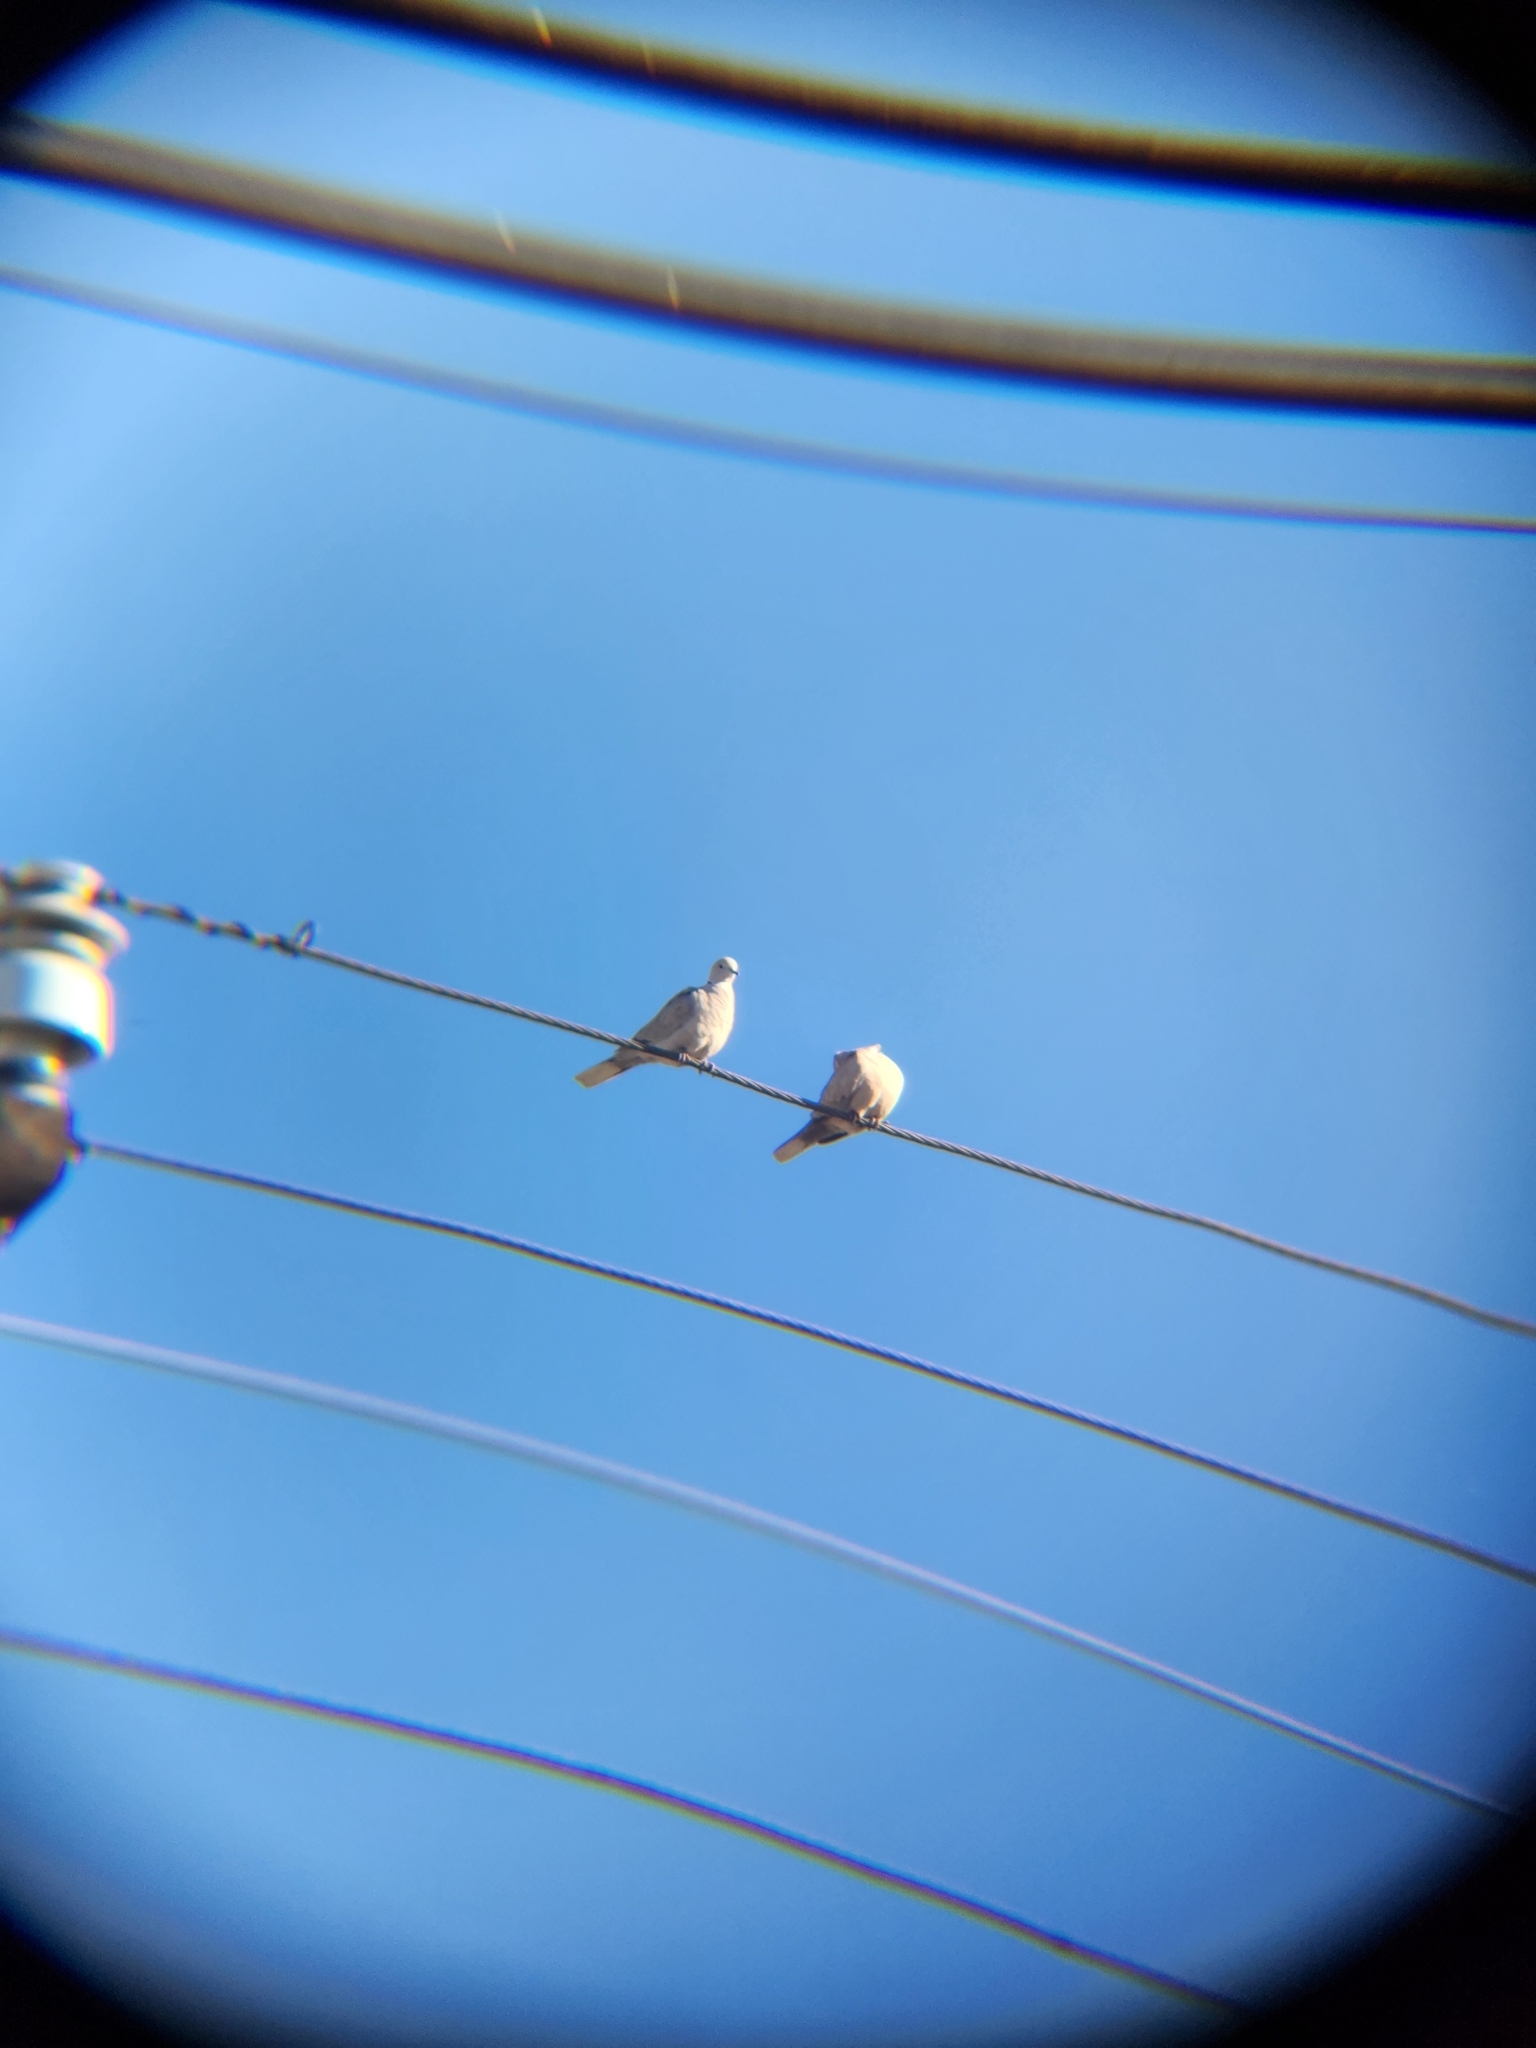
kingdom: Animalia
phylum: Chordata
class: Aves
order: Columbiformes
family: Columbidae
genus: Streptopelia
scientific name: Streptopelia decaocto
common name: Eurasian collared dove
